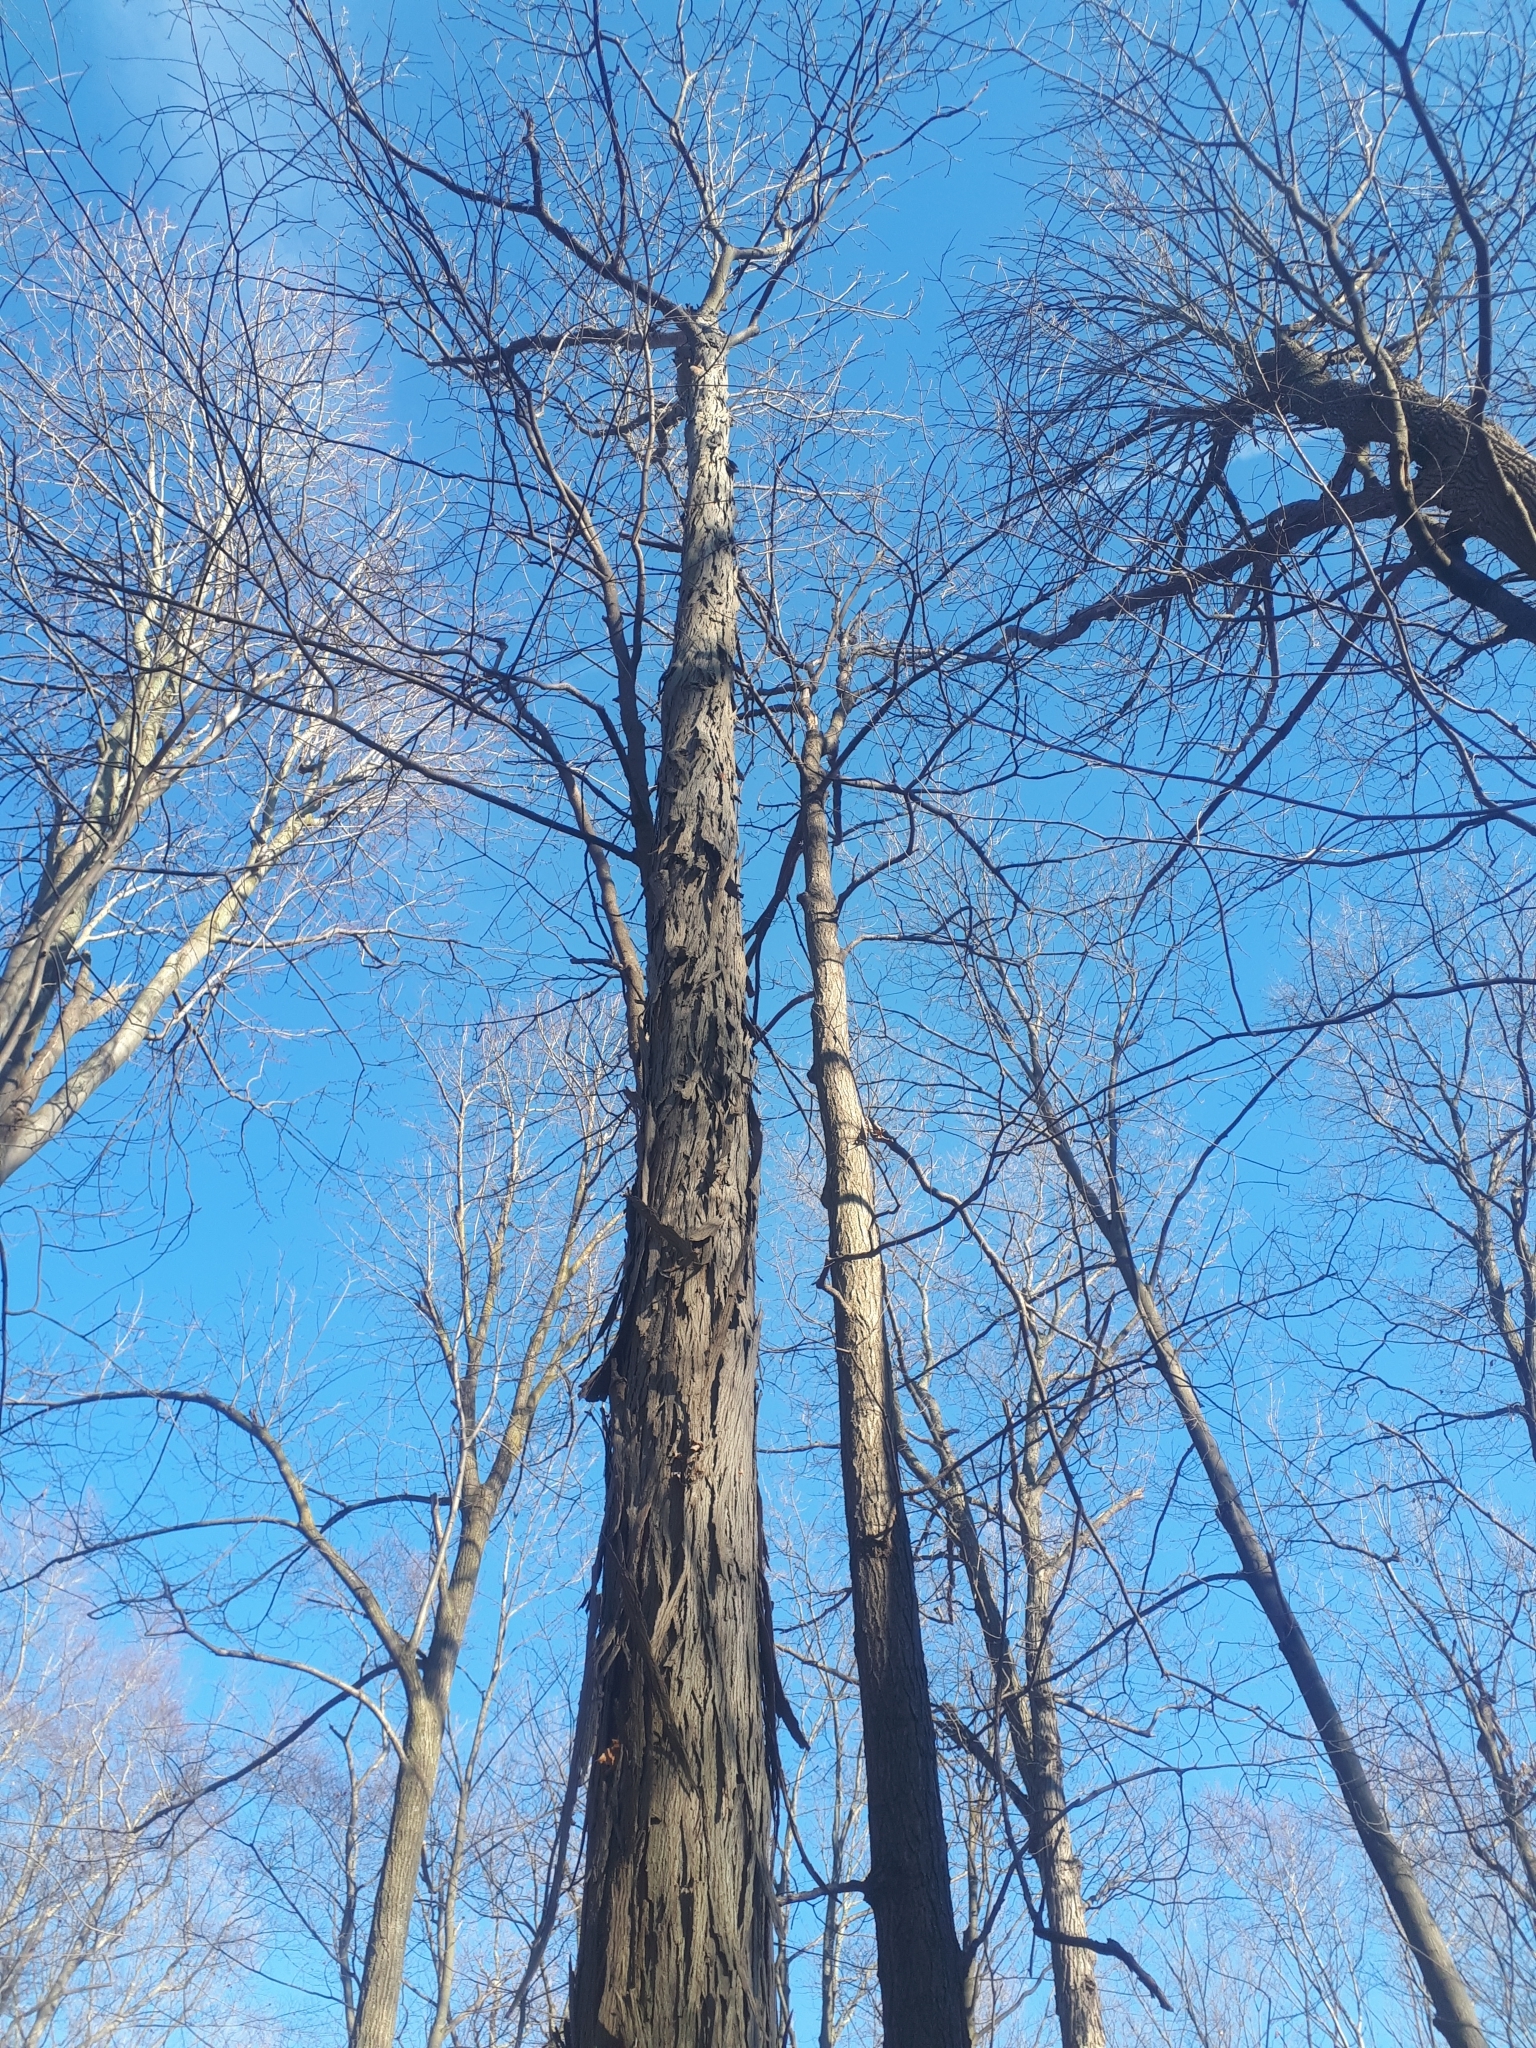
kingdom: Plantae
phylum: Tracheophyta
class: Magnoliopsida
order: Fagales
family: Juglandaceae
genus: Carya
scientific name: Carya ovata
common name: Shagbark hickory
